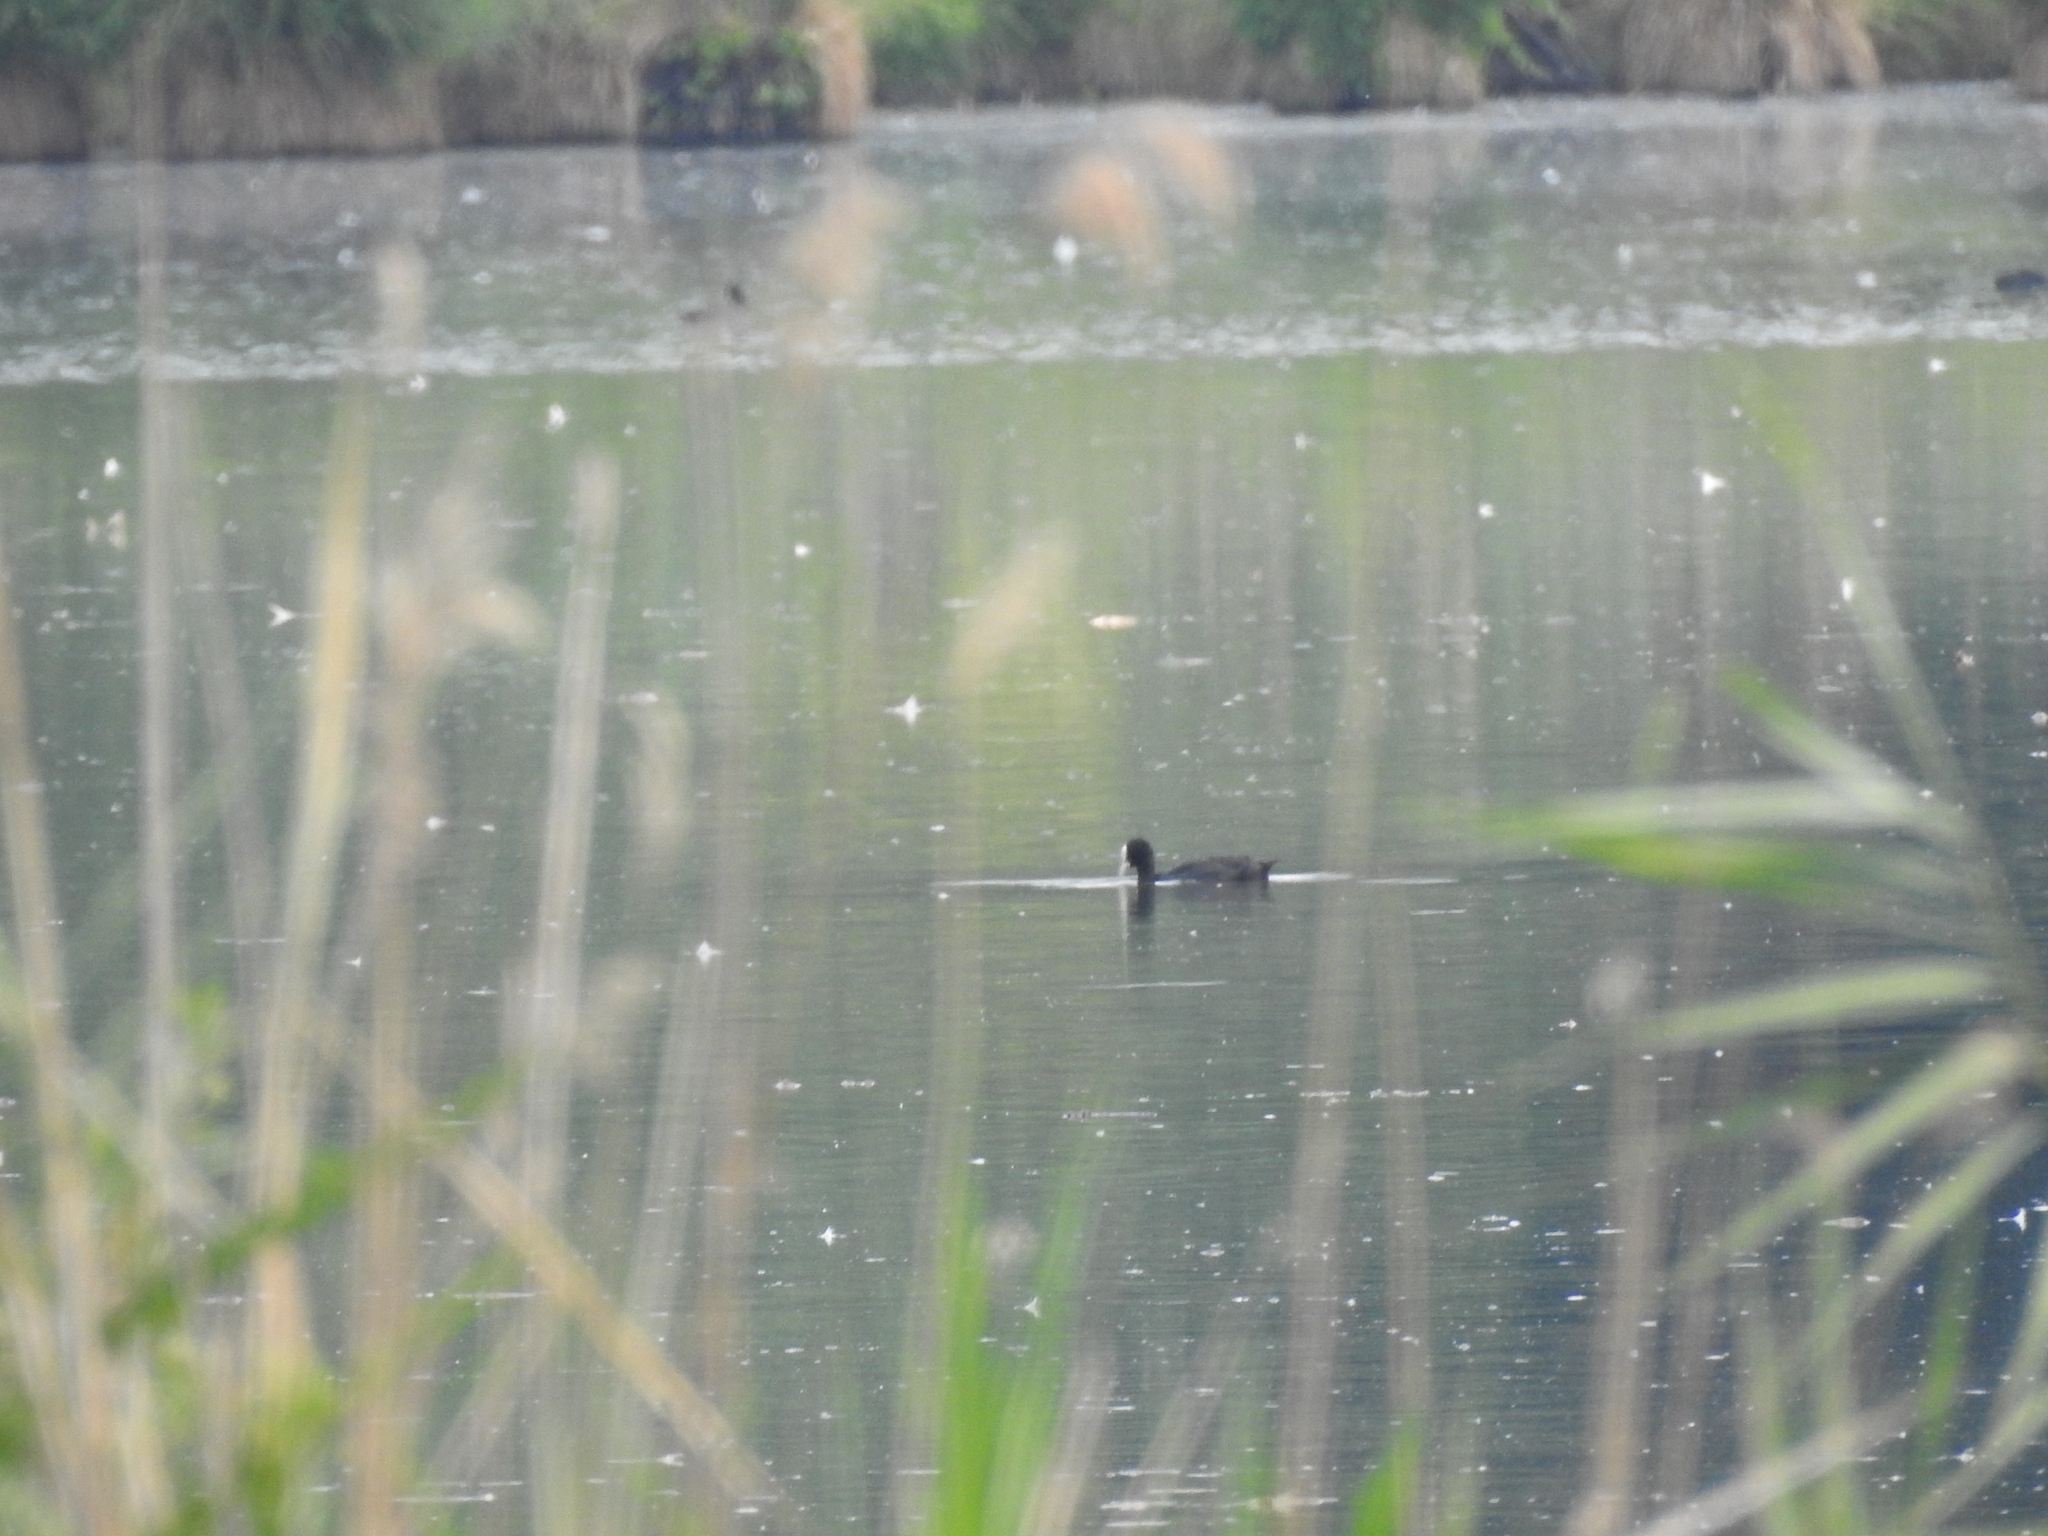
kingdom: Animalia
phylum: Chordata
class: Aves
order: Gruiformes
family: Rallidae
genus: Fulica
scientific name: Fulica atra
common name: Eurasian coot
